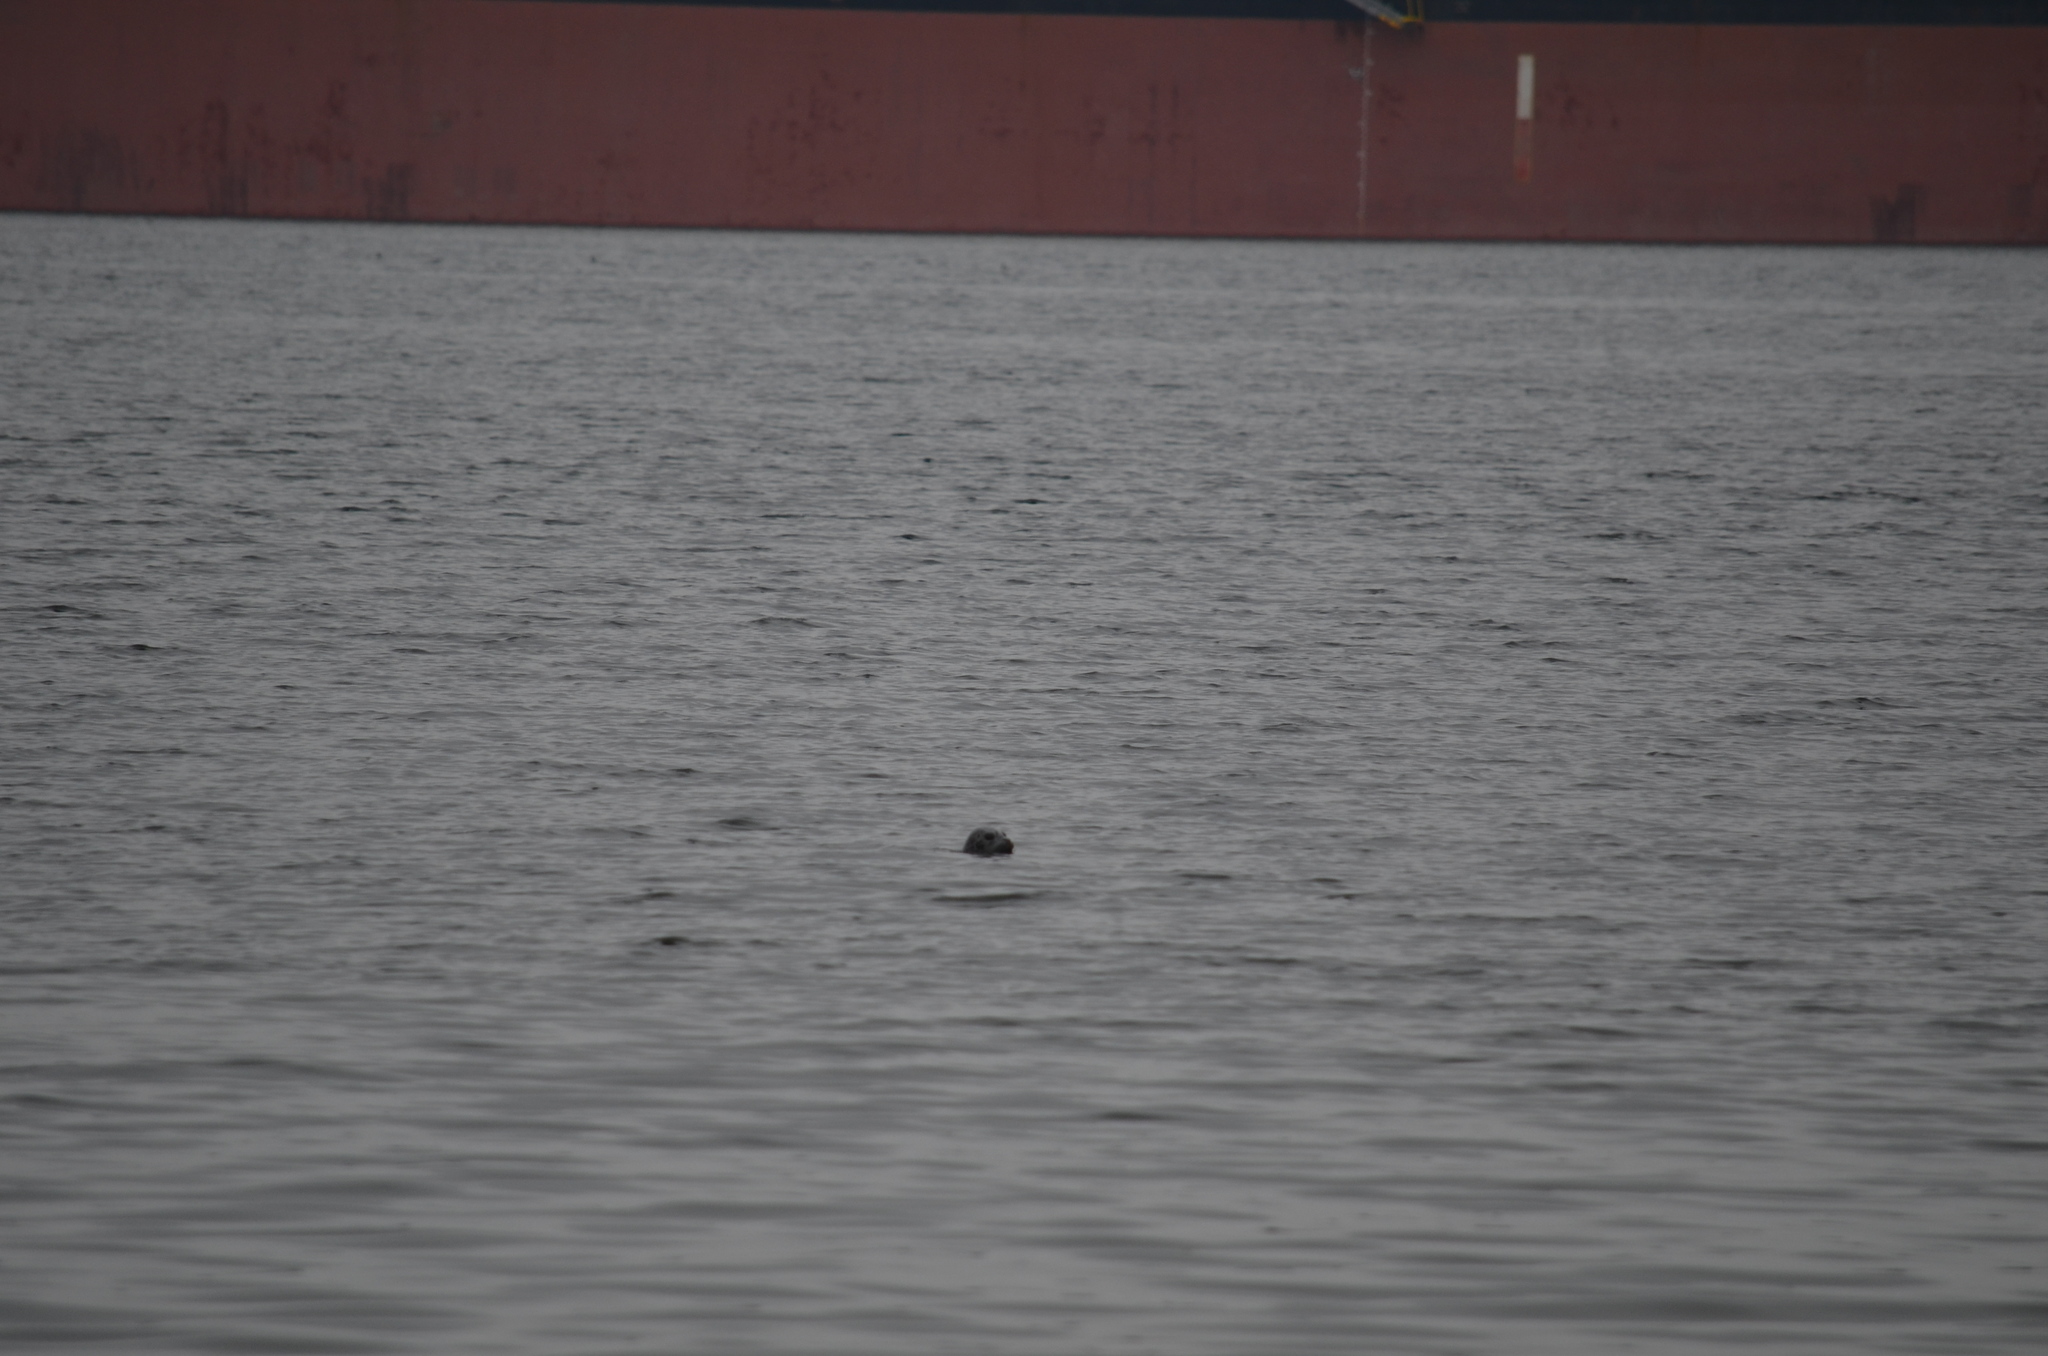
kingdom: Animalia
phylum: Chordata
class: Mammalia
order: Carnivora
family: Phocidae
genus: Phoca
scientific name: Phoca vitulina
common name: Harbor seal
